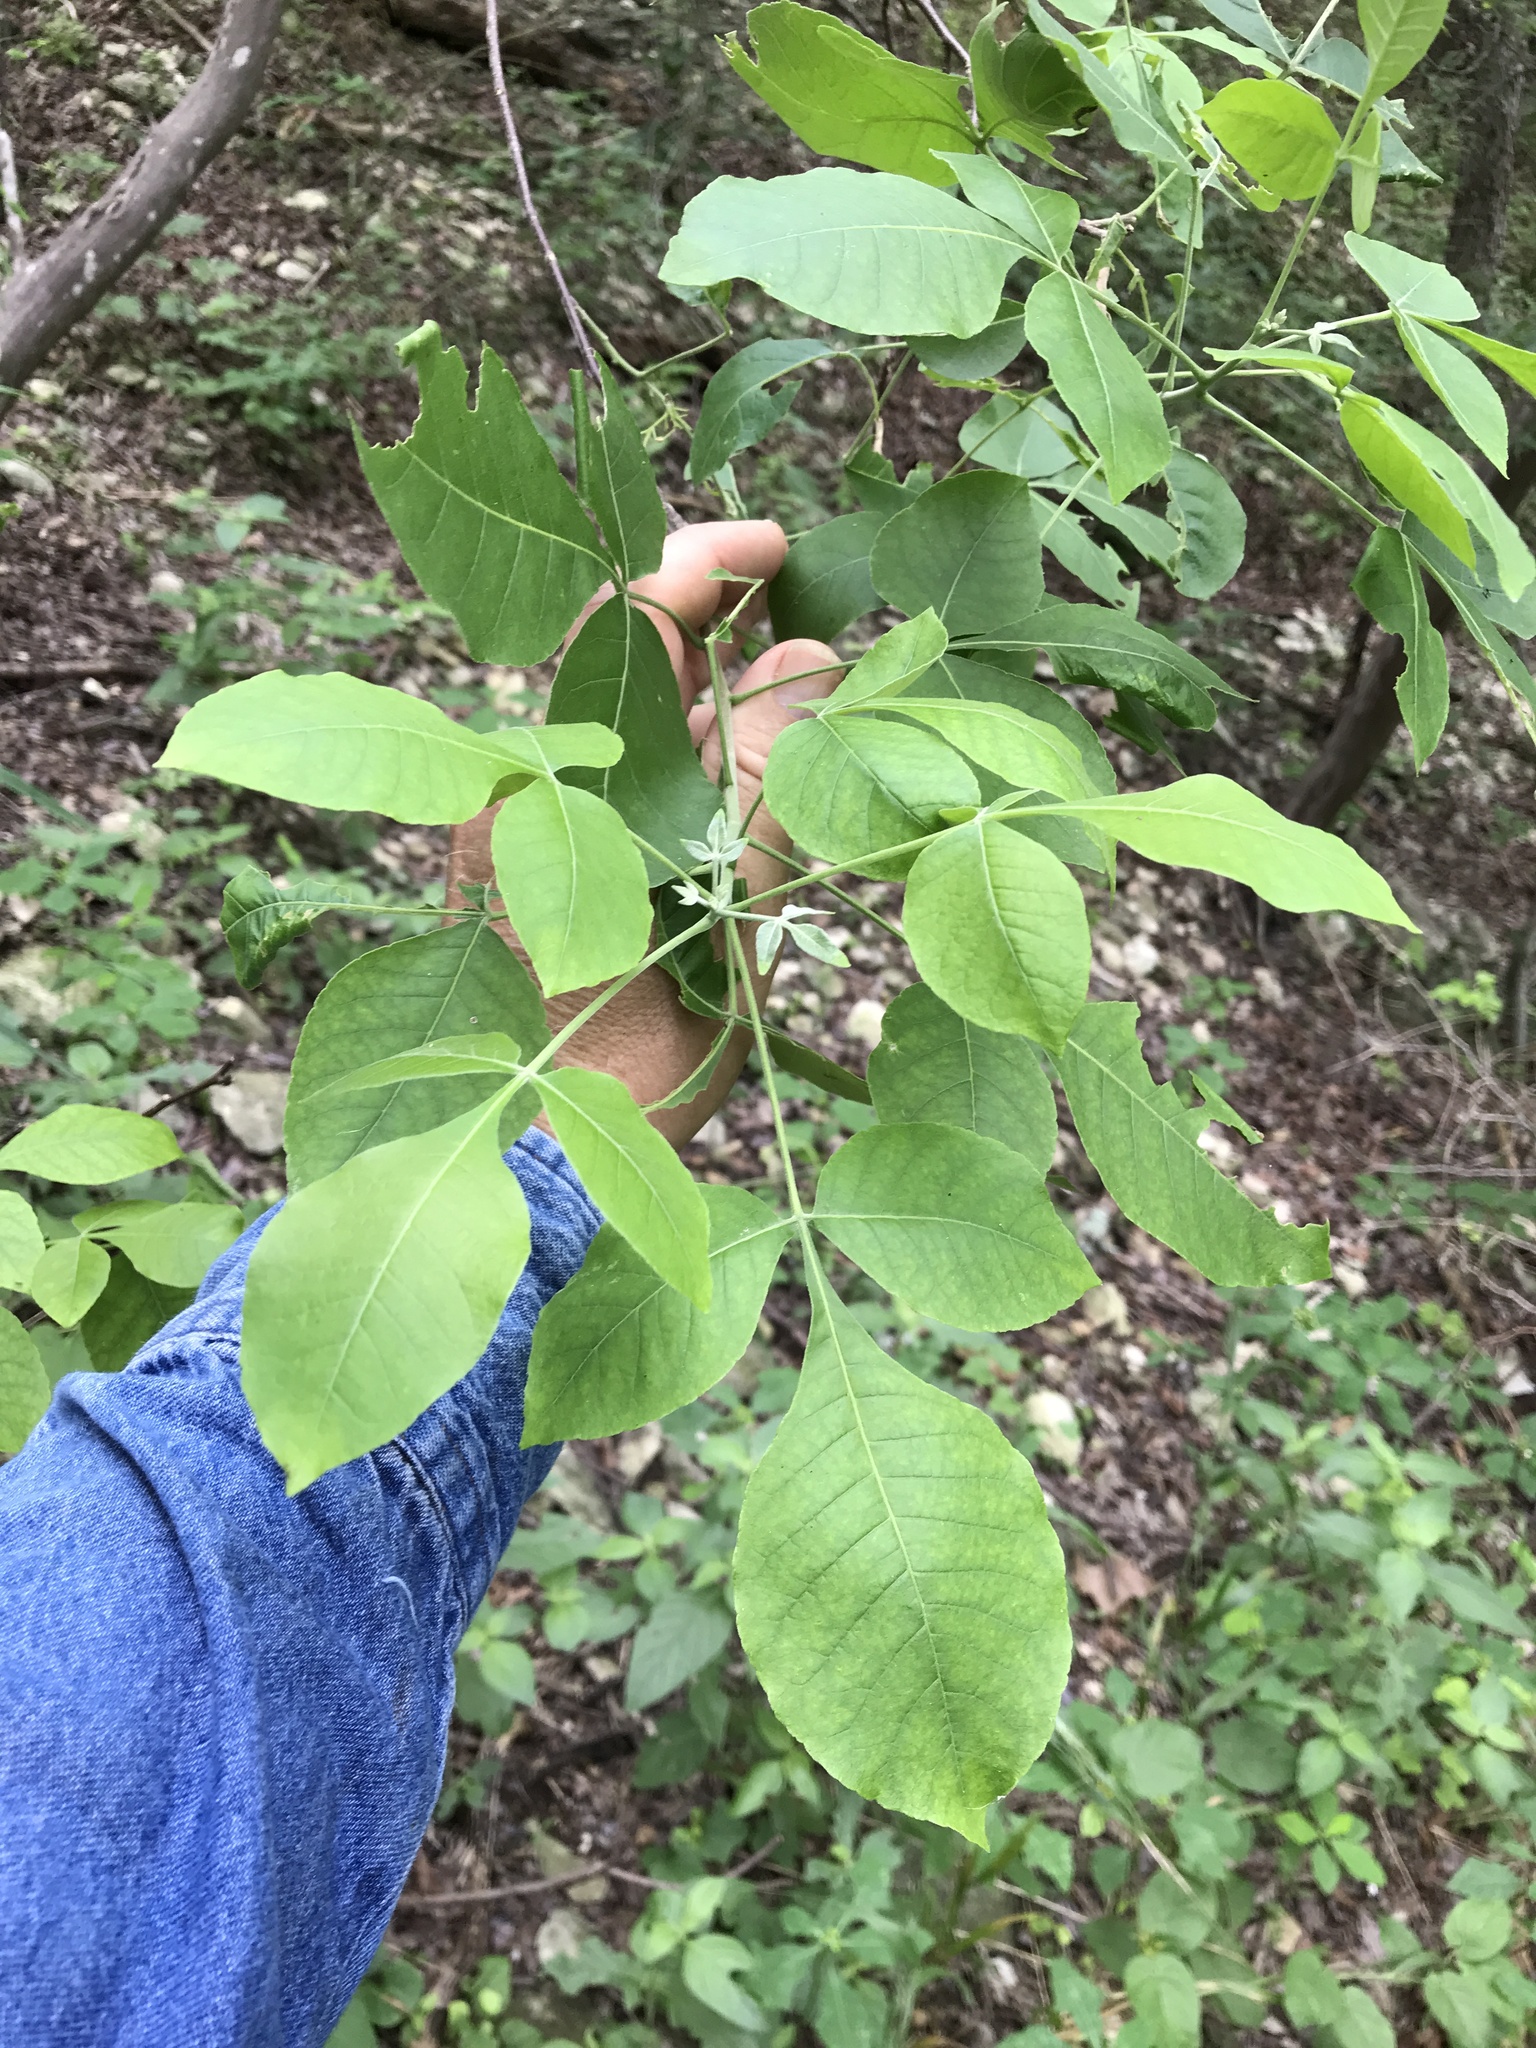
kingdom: Plantae
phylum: Tracheophyta
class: Magnoliopsida
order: Sapindales
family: Rutaceae
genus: Ptelea
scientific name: Ptelea trifoliata
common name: Common hop-tree
